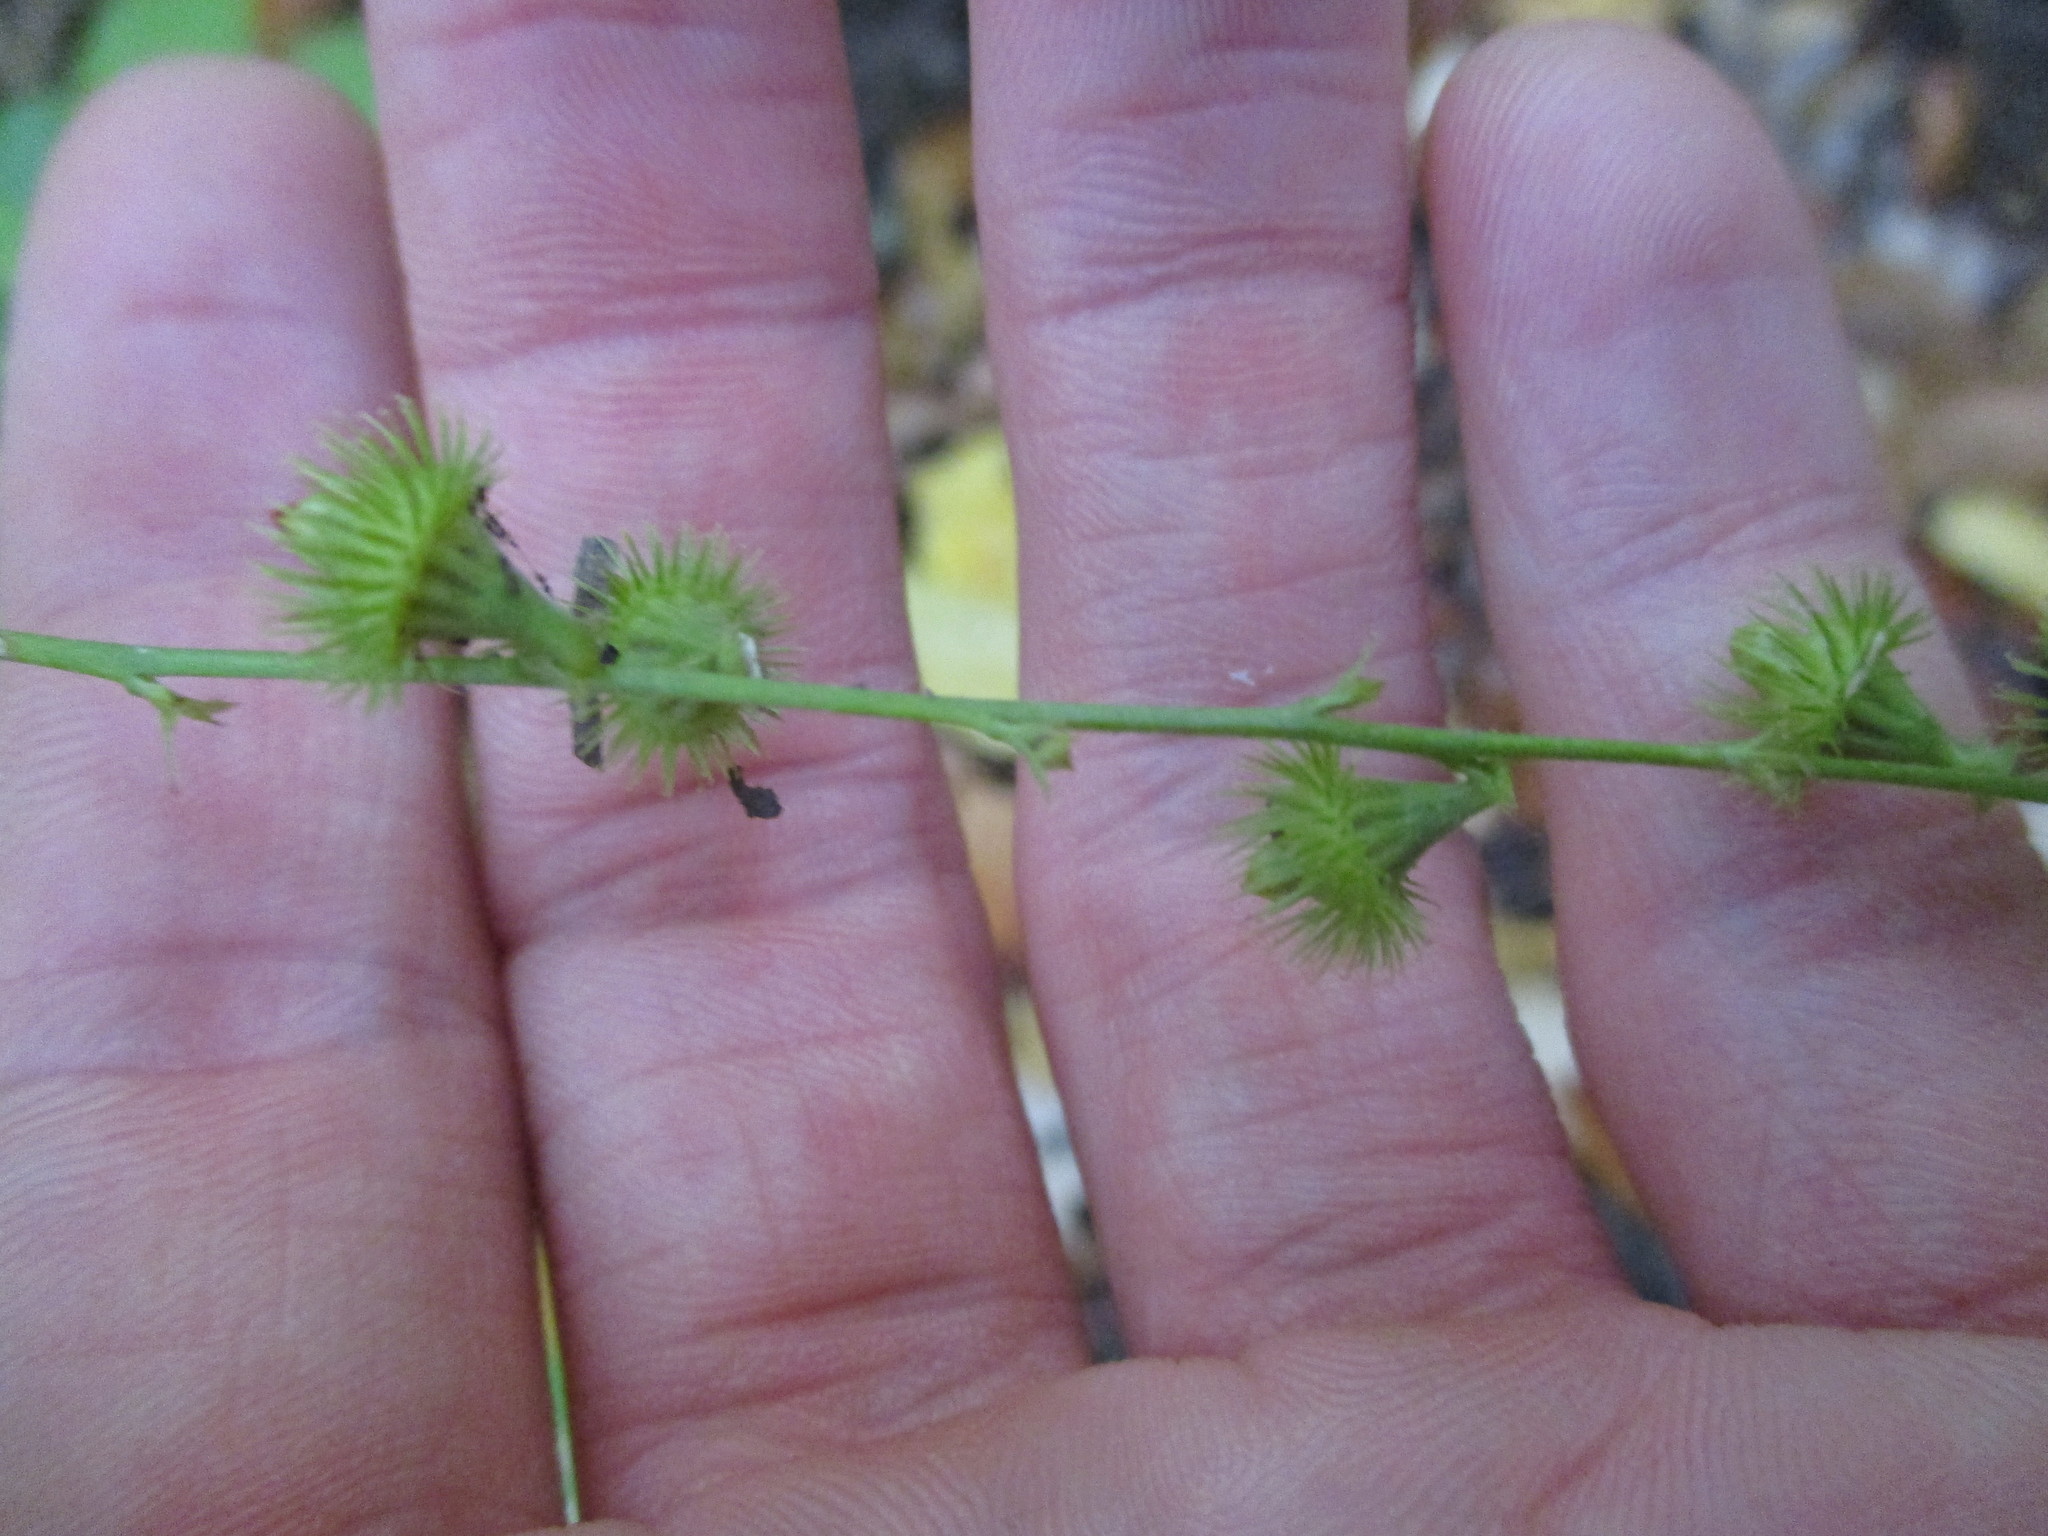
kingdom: Plantae
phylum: Tracheophyta
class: Magnoliopsida
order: Rosales
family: Rosaceae
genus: Agrimonia
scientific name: Agrimonia gryposepala
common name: Common agrimony
